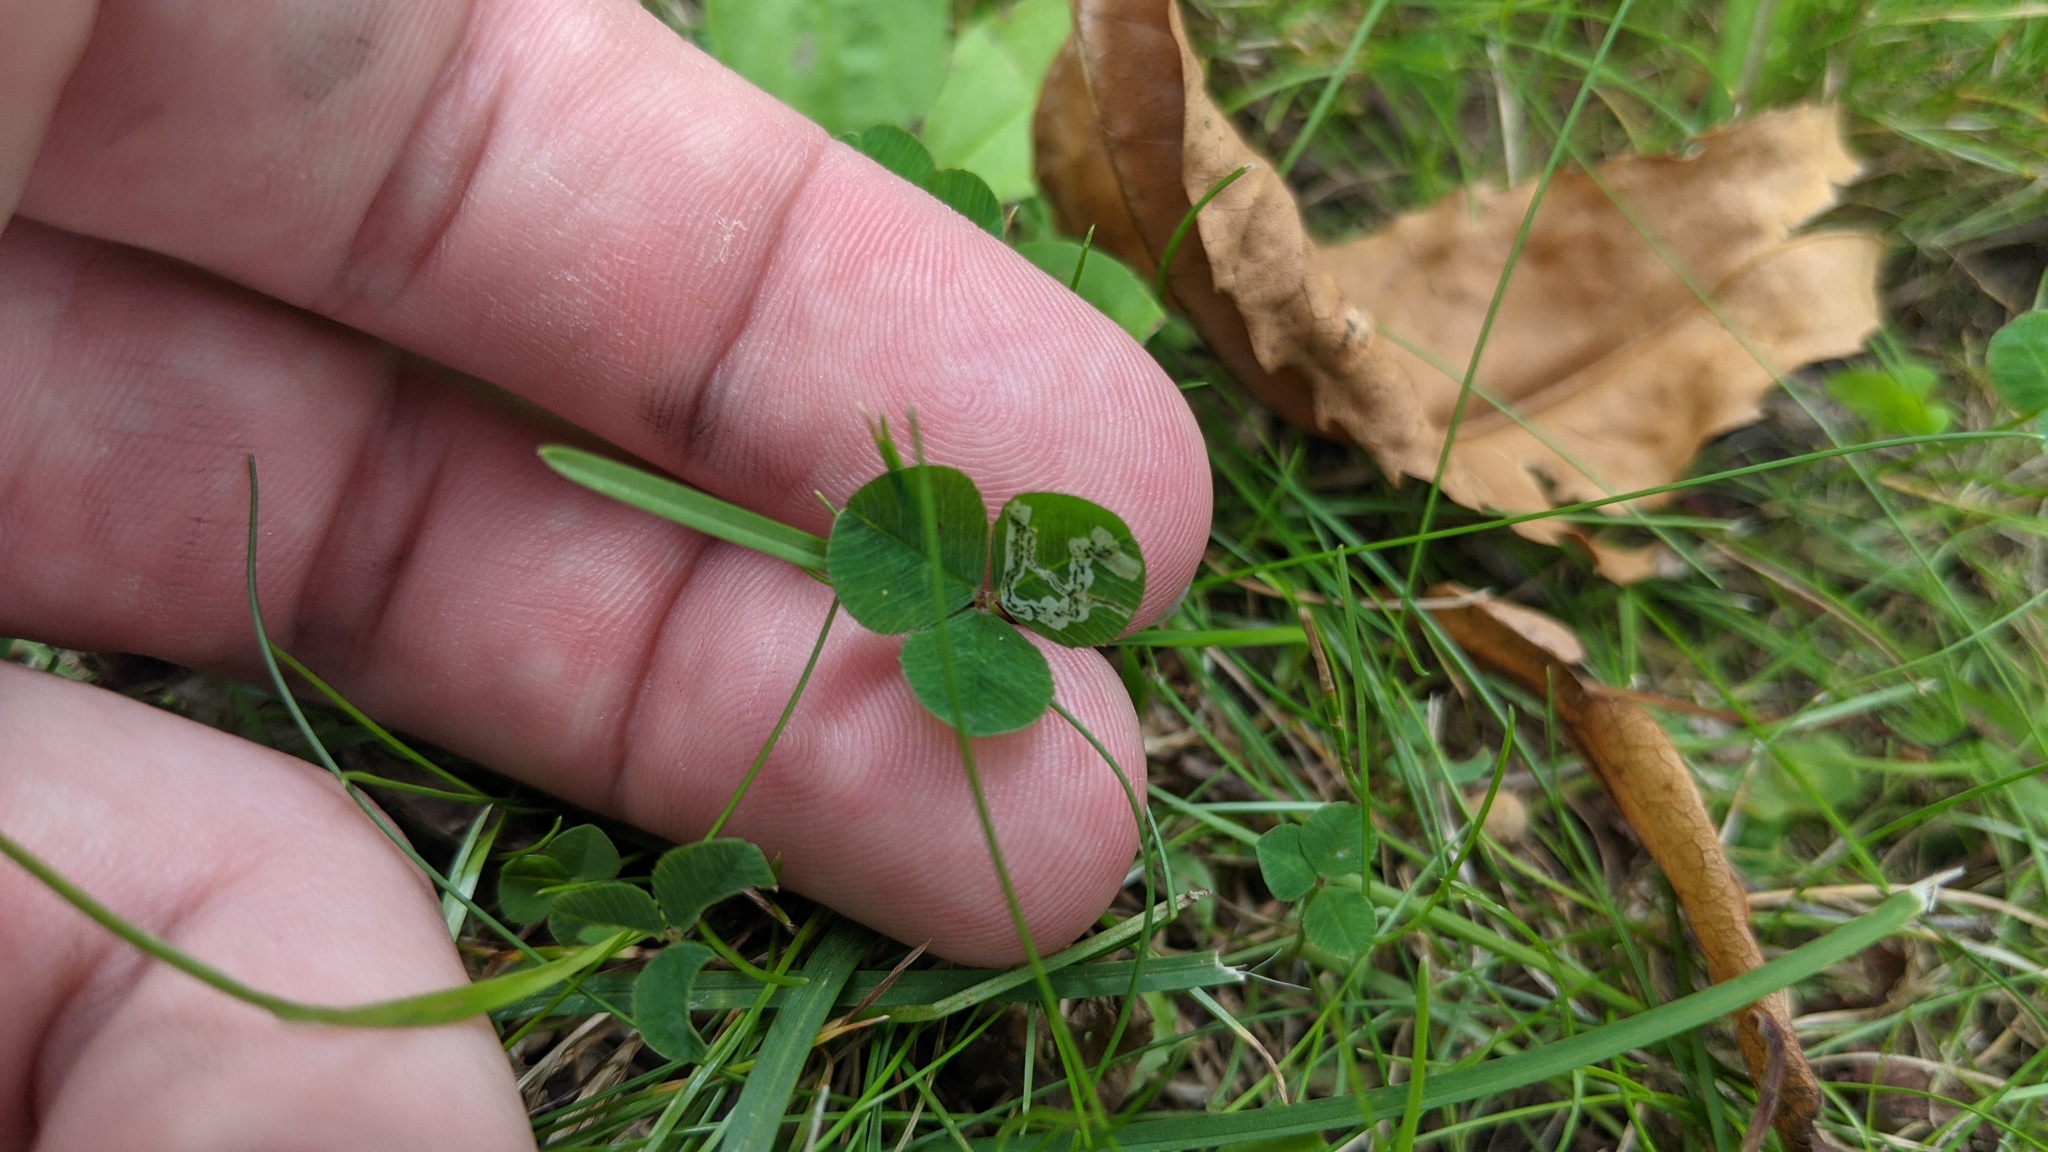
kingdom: Plantae
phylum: Tracheophyta
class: Magnoliopsida
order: Fabales
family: Fabaceae
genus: Trifolium
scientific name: Trifolium repens
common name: White clover
